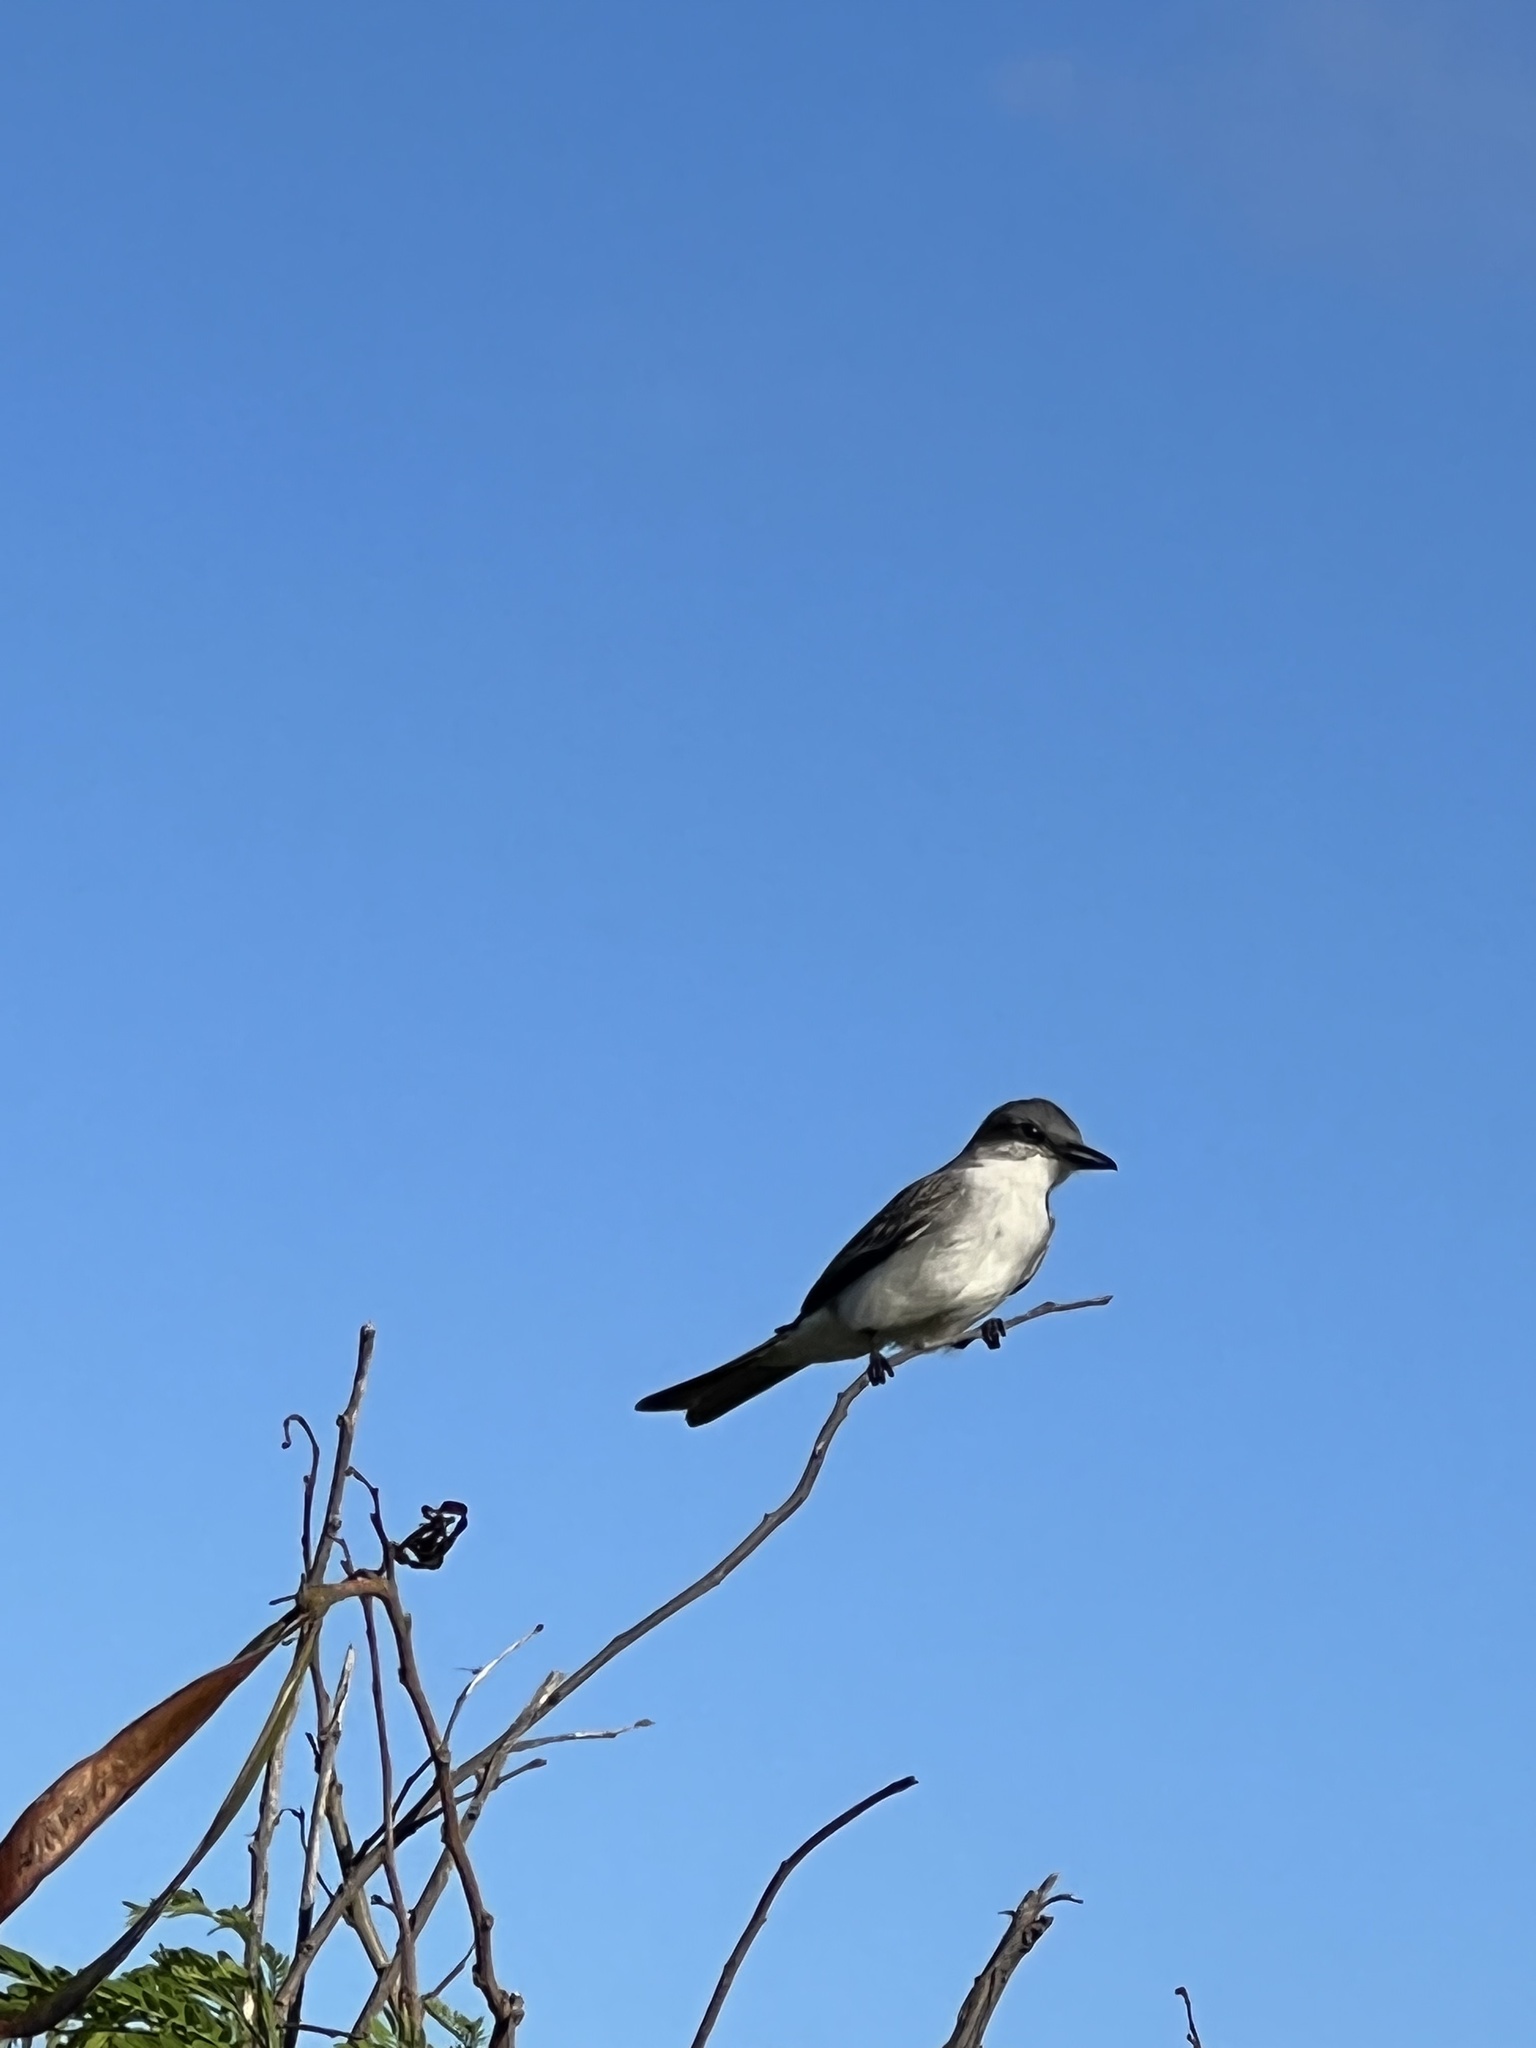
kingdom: Animalia
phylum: Chordata
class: Aves
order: Passeriformes
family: Tyrannidae
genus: Tyrannus
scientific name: Tyrannus dominicensis
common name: Gray kingbird
